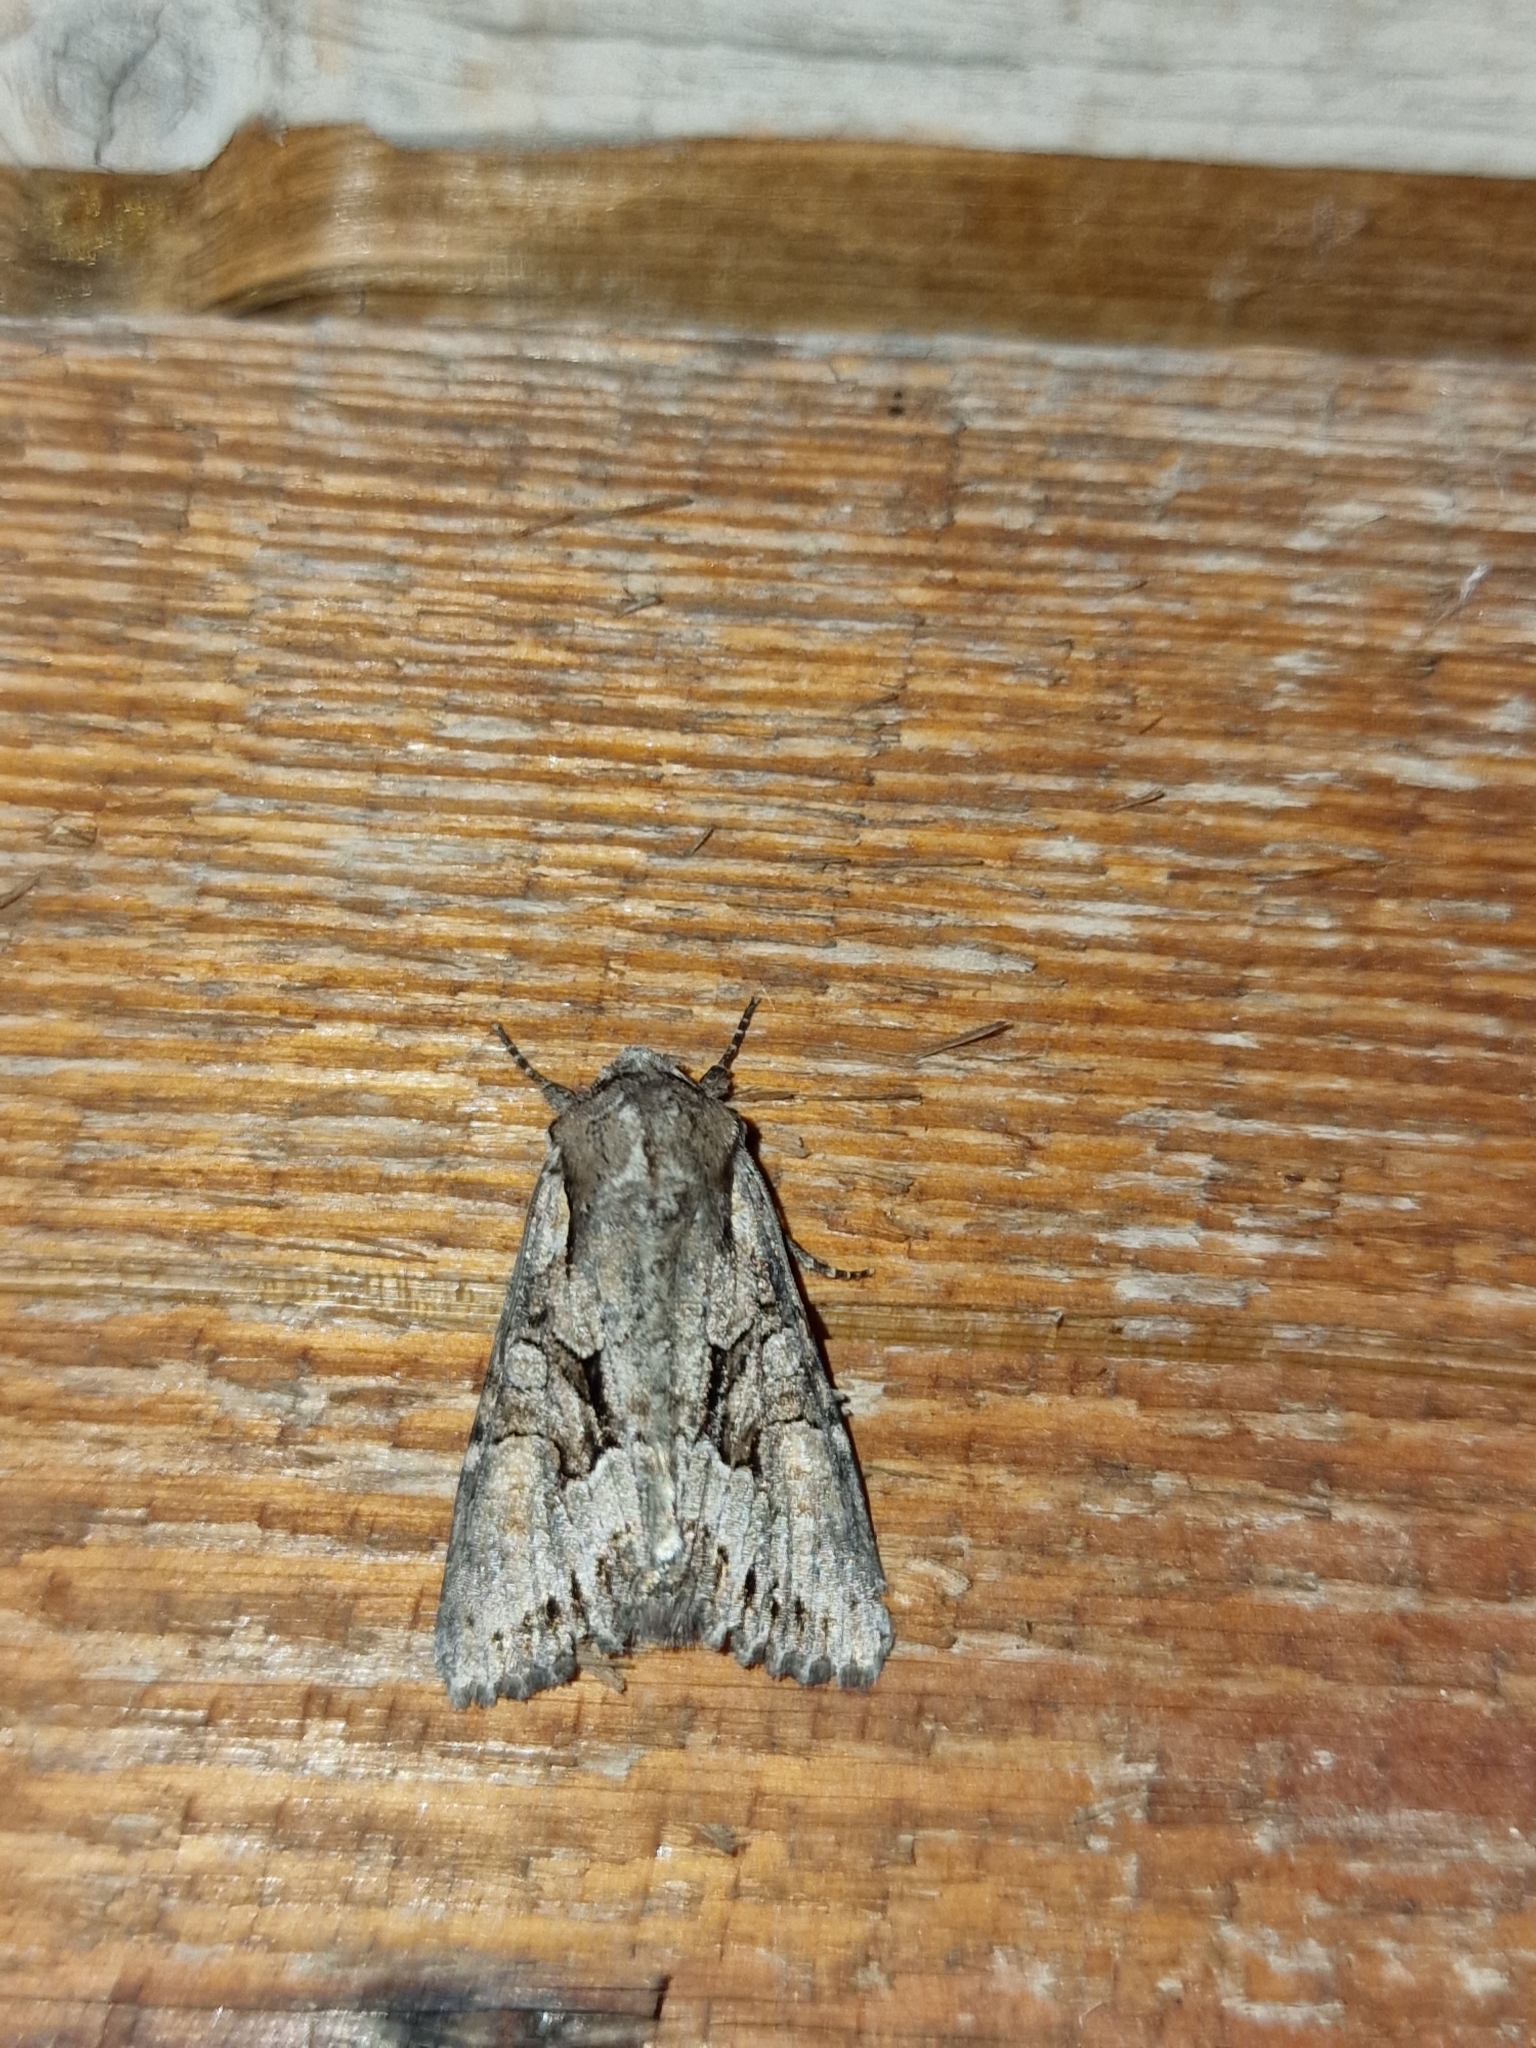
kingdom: Animalia
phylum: Arthropoda
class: Insecta
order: Lepidoptera
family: Noctuidae
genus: Lacanobia
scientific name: Lacanobia w-latinum
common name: Light brocade
